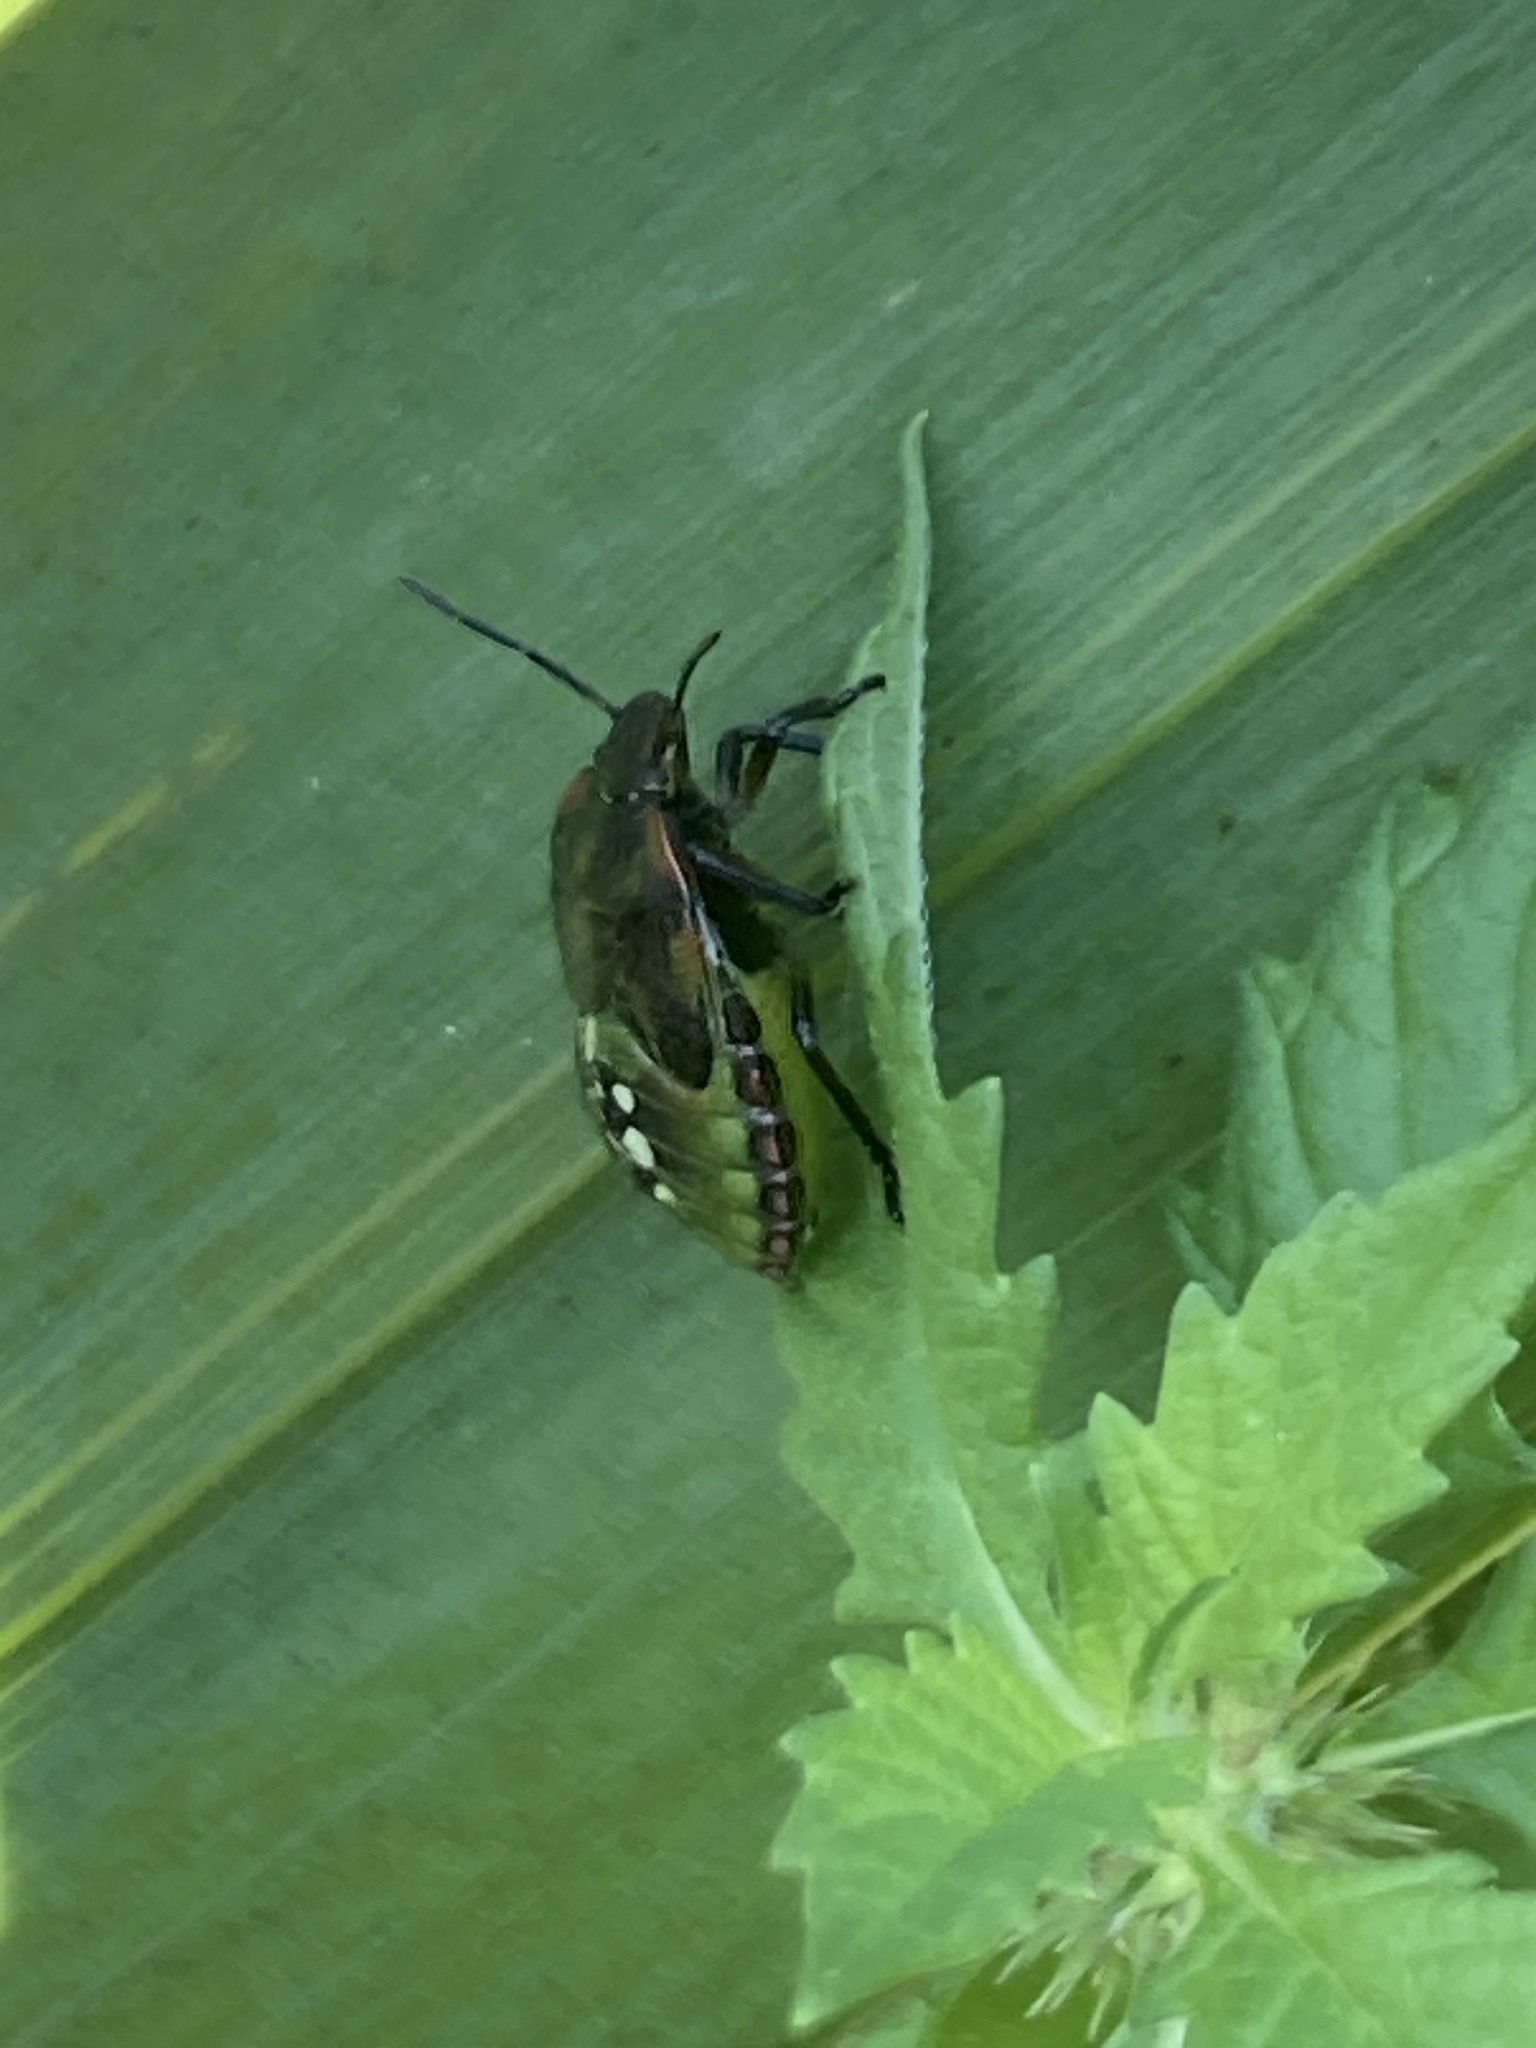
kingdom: Animalia
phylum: Arthropoda
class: Insecta
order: Hemiptera
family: Pentatomidae
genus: Nezara
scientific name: Nezara viridula
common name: Southern green stink bug
